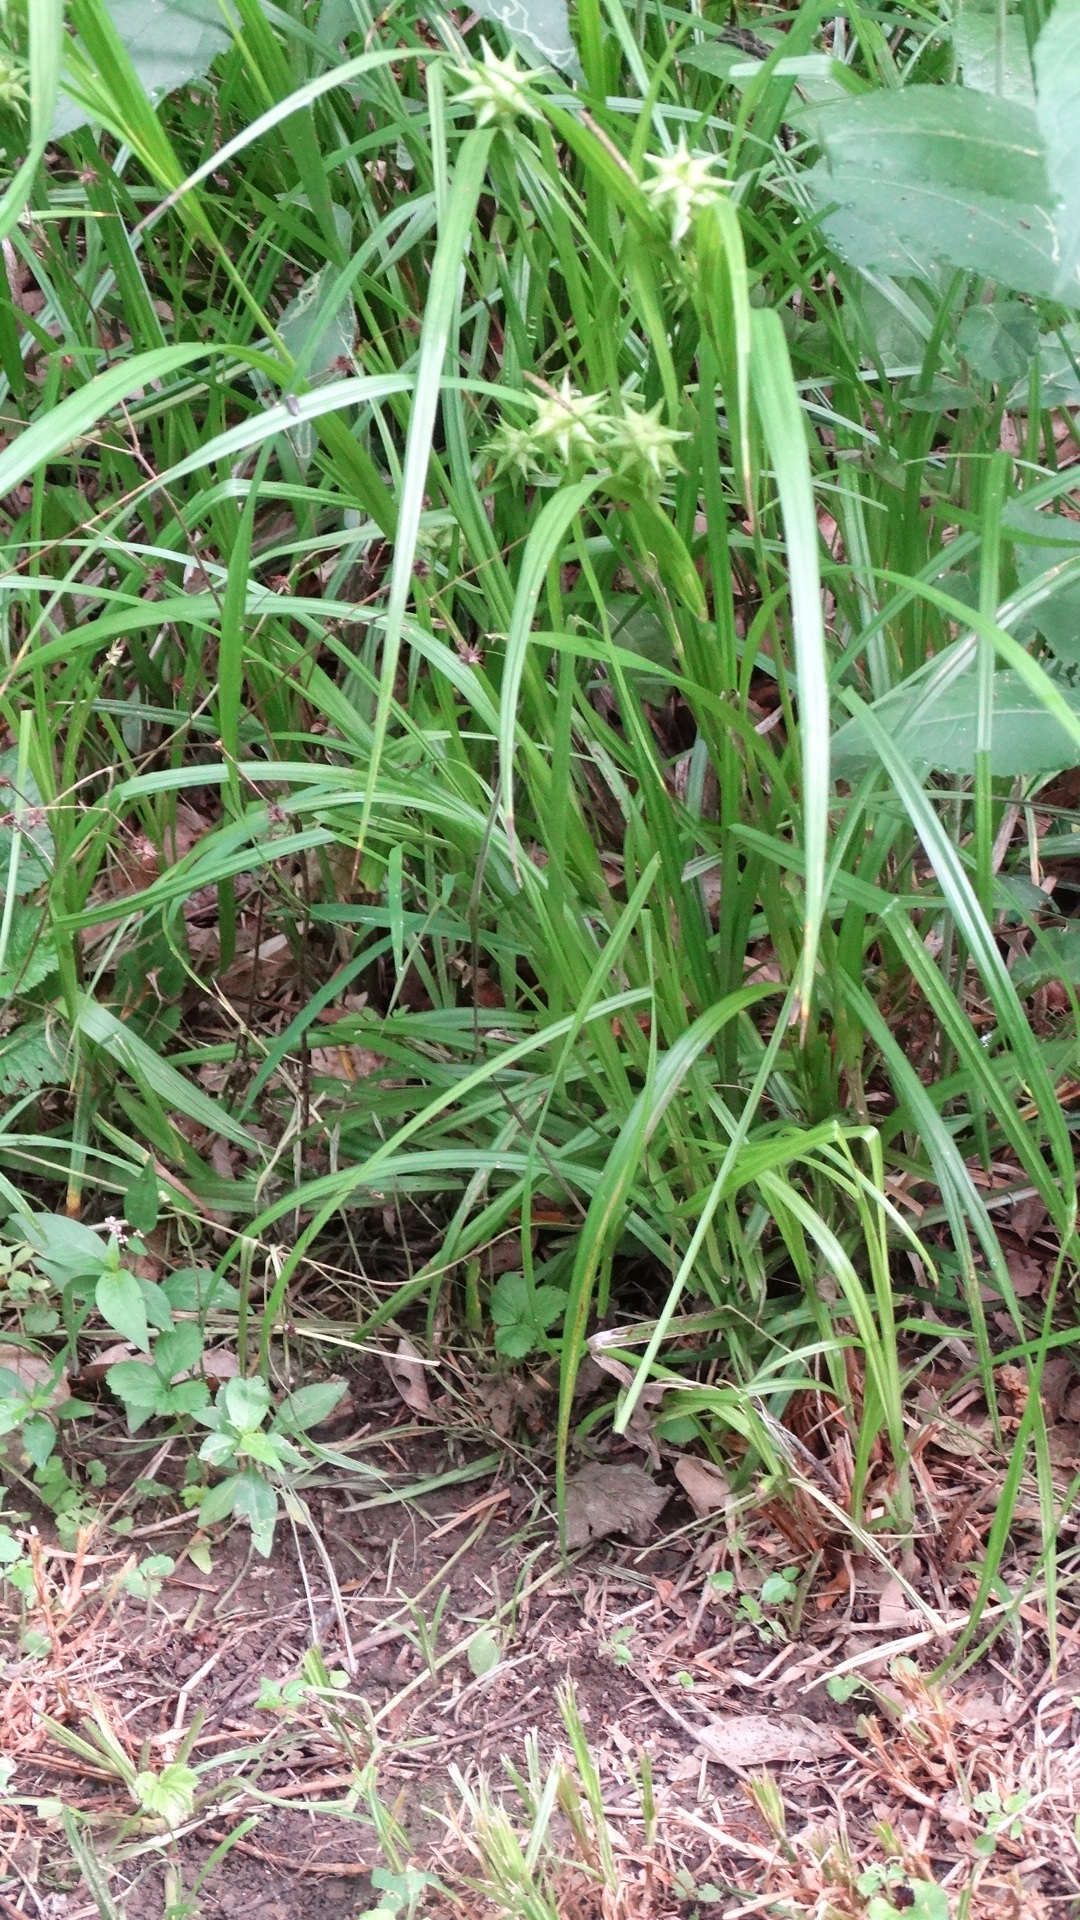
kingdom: Plantae
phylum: Tracheophyta
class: Liliopsida
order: Poales
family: Cyperaceae
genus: Carex
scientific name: Carex grayi
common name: Asa gray's sedge
